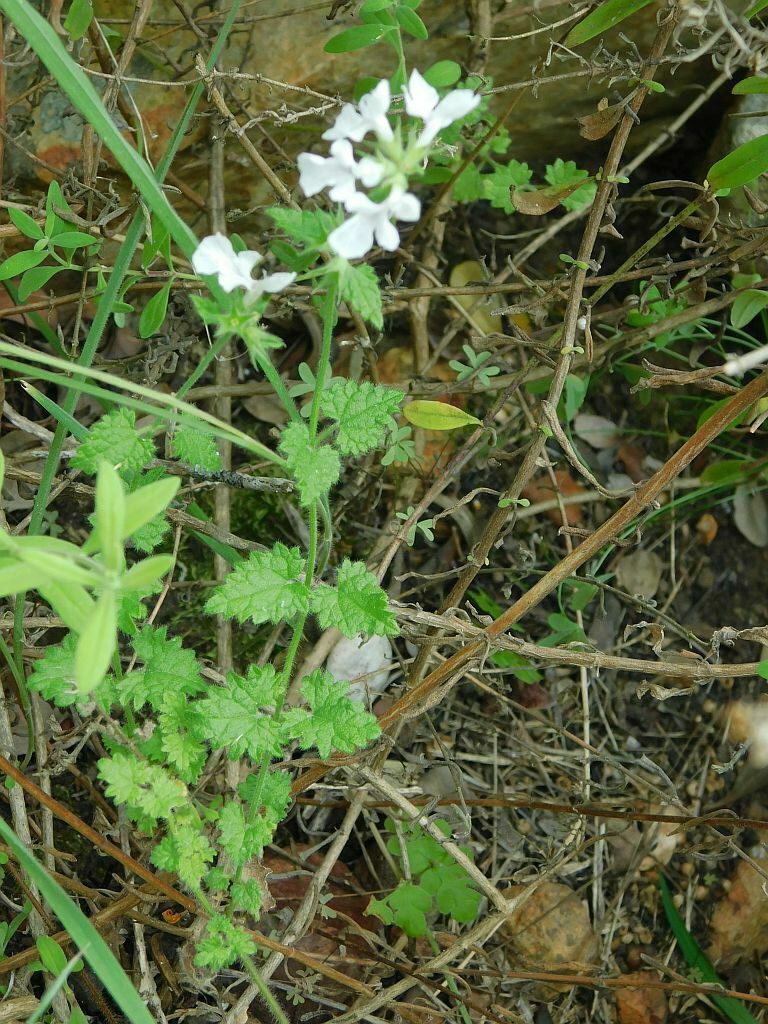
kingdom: Plantae
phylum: Tracheophyta
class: Magnoliopsida
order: Lamiales
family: Lamiaceae
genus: Stachys
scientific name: Stachys aethiopica
